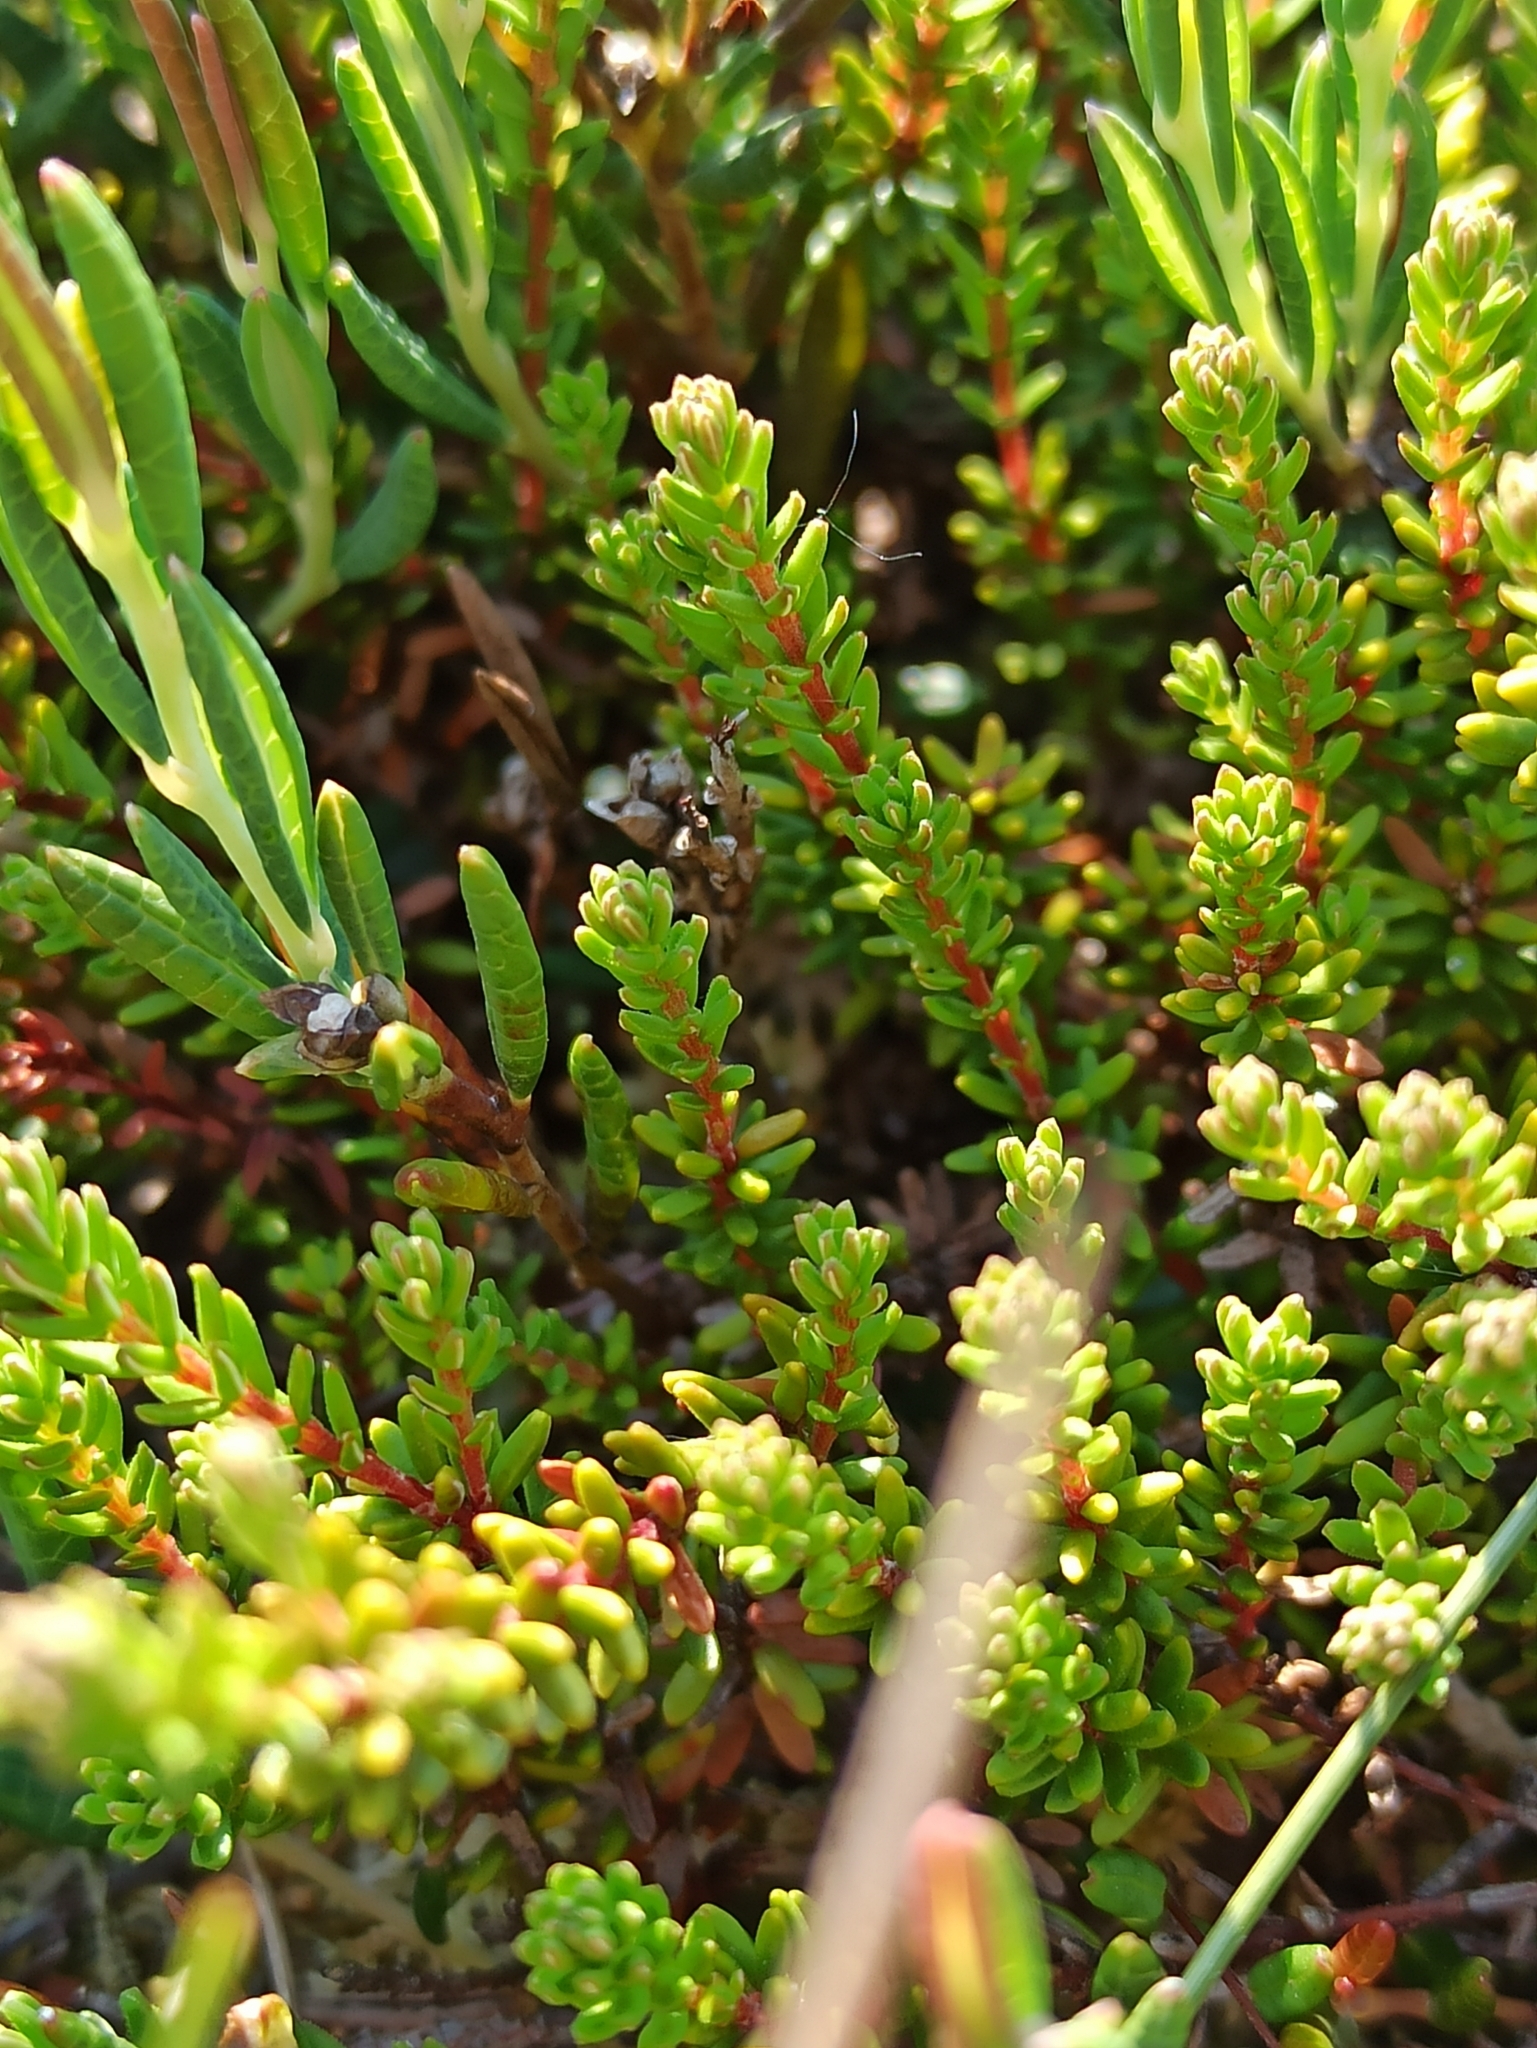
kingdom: Plantae
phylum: Tracheophyta
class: Magnoliopsida
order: Ericales
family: Ericaceae
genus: Empetrum
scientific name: Empetrum nigrum
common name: Black crowberry
